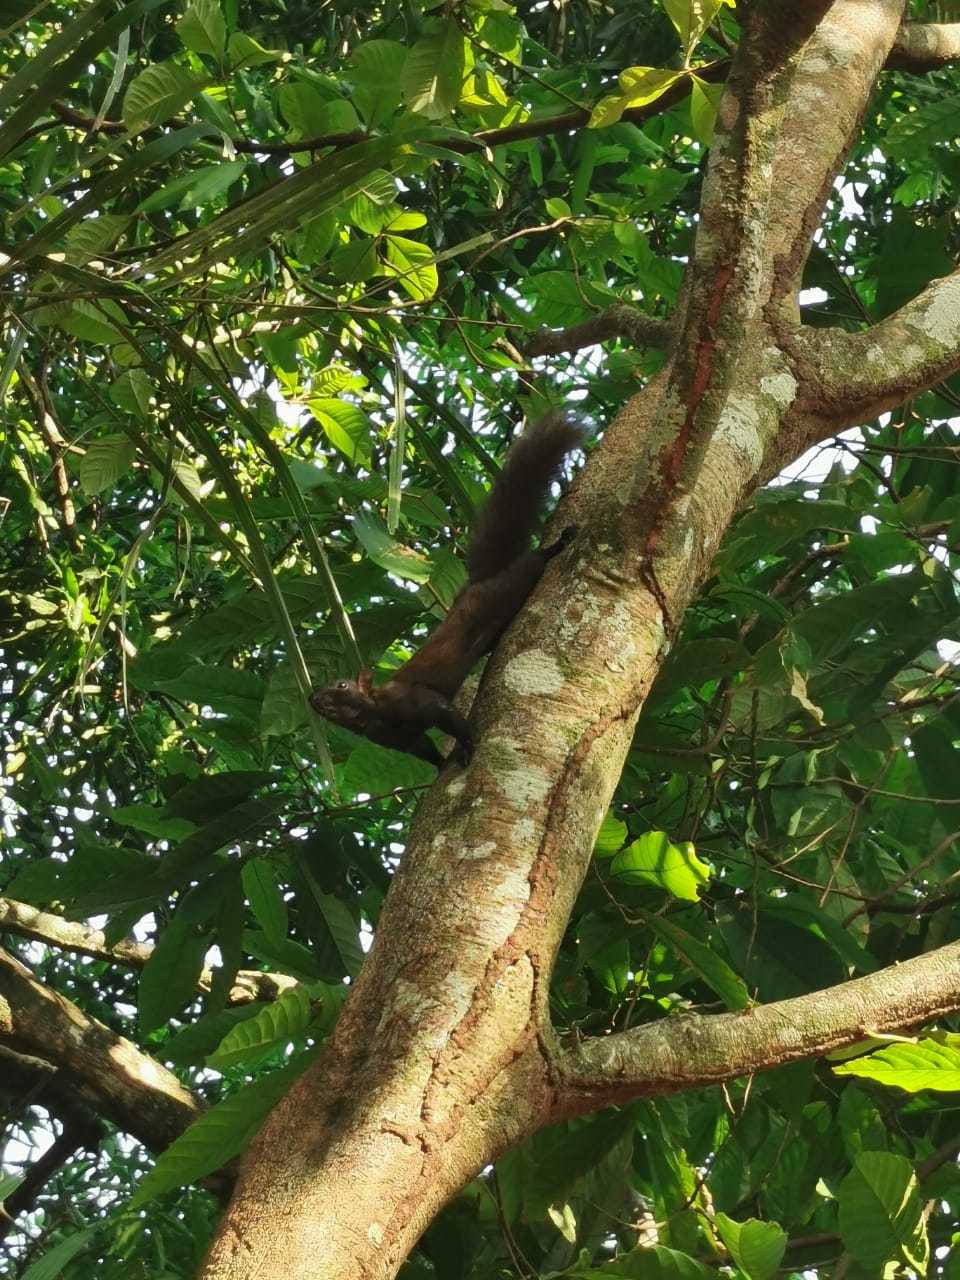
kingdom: Animalia
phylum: Chordata
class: Mammalia
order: Rodentia
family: Sciuridae
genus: Sciurus
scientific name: Sciurus variegatoides
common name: Variegated squirrel
